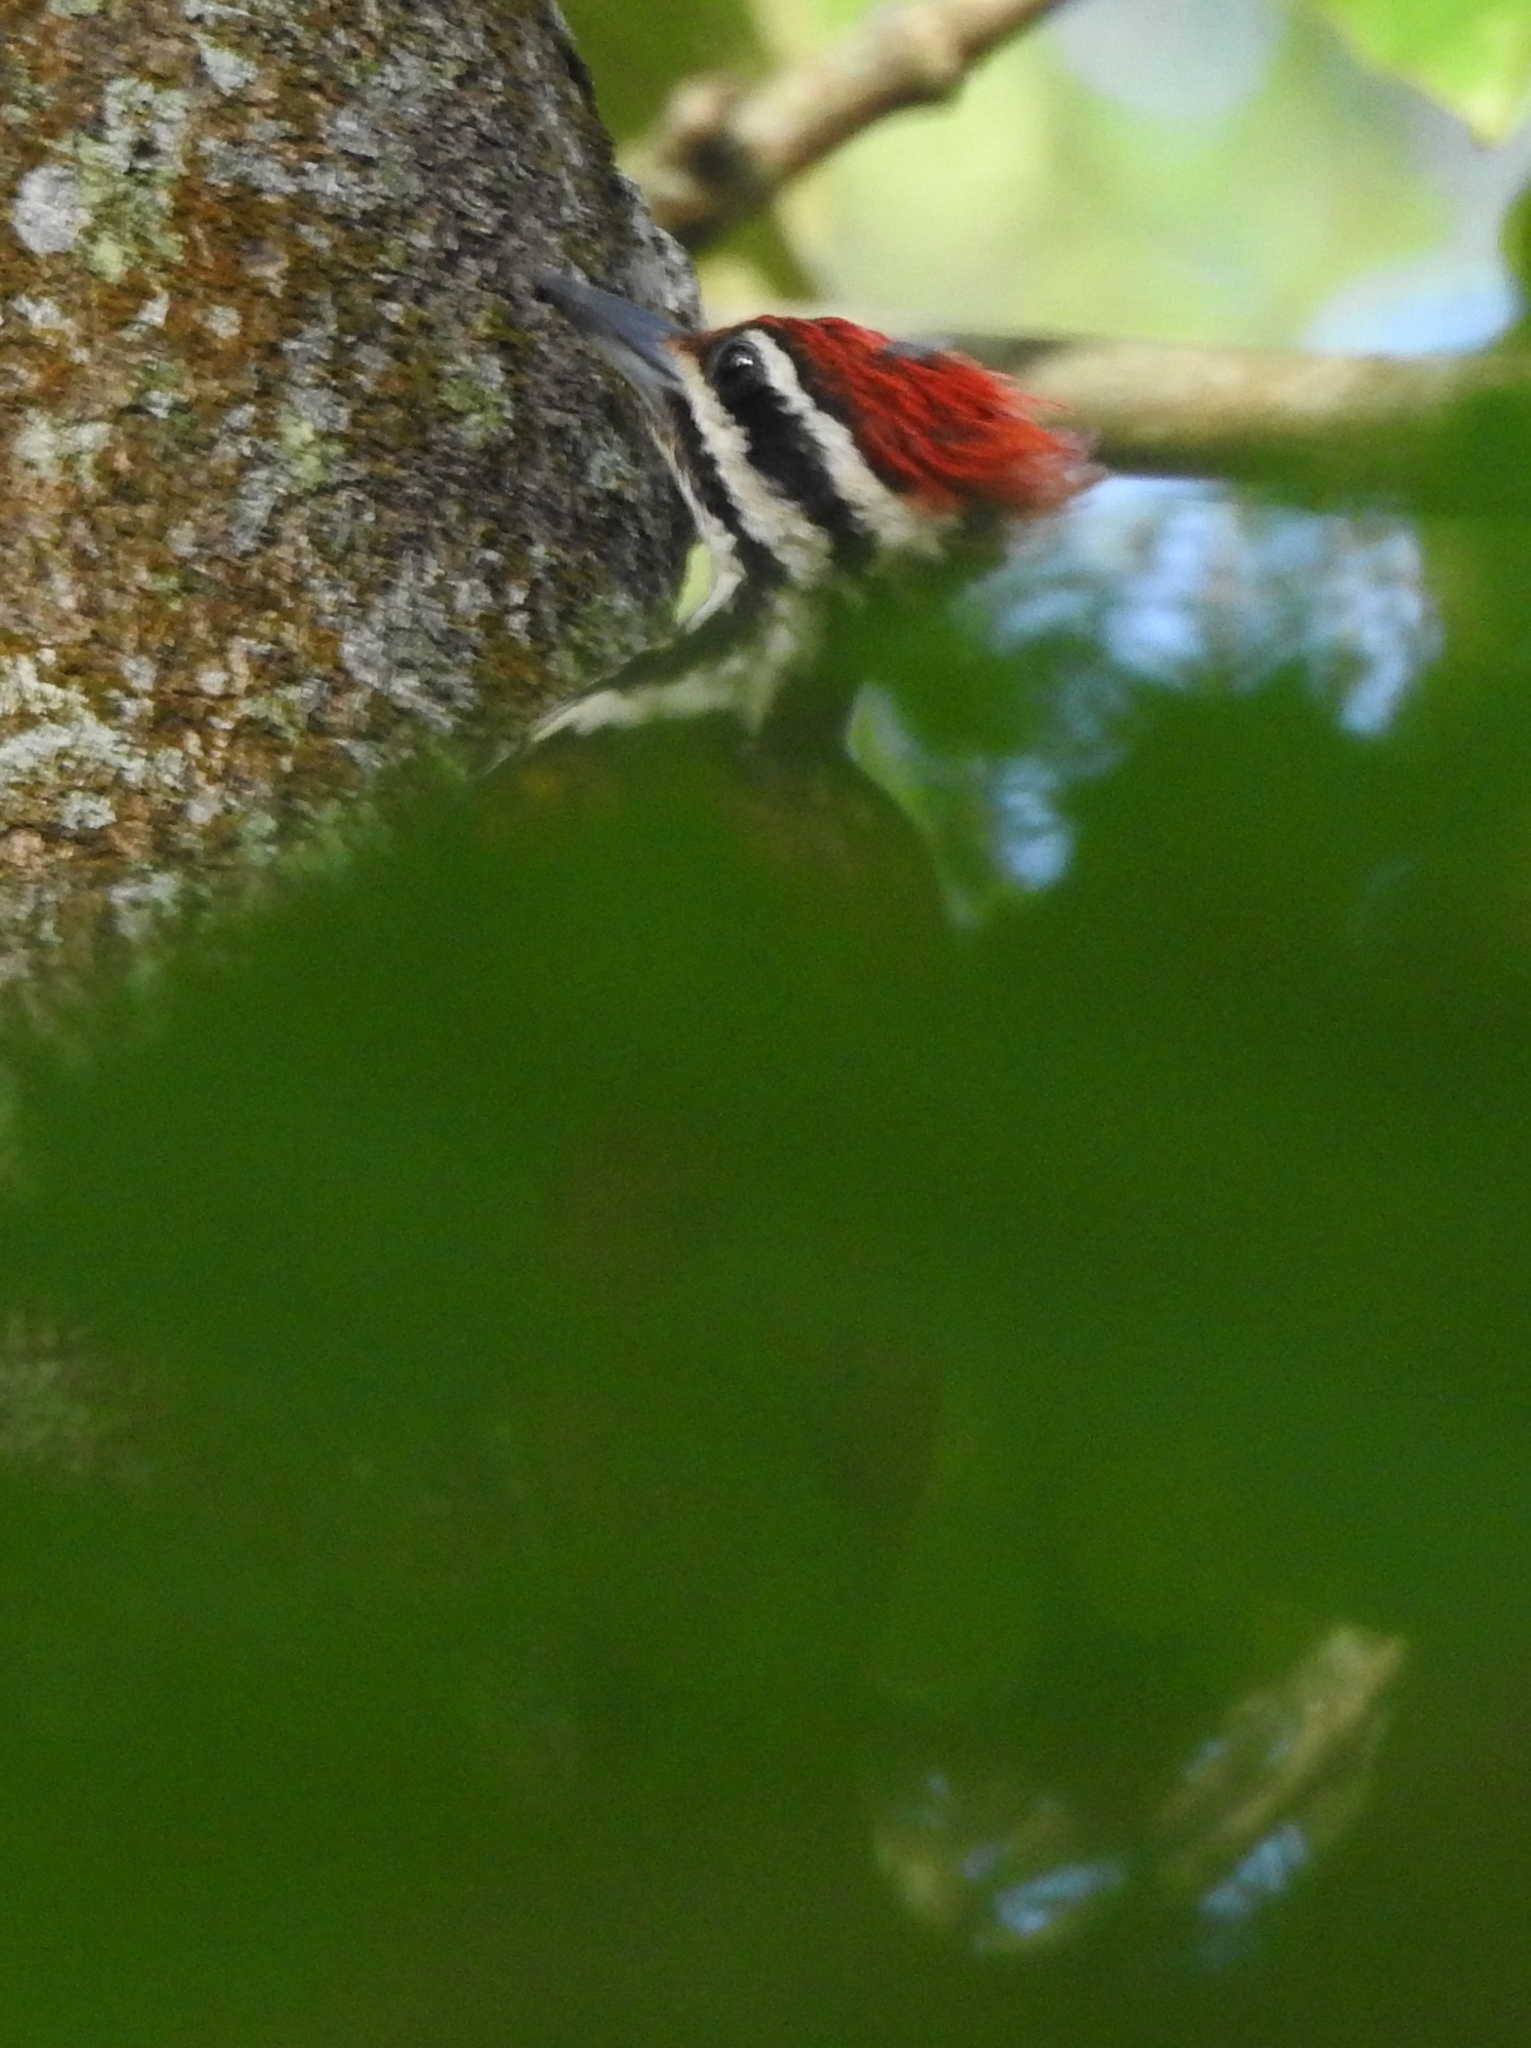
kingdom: Animalia
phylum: Chordata
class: Aves
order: Piciformes
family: Picidae
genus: Dinopium
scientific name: Dinopium javanense
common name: Common flameback
